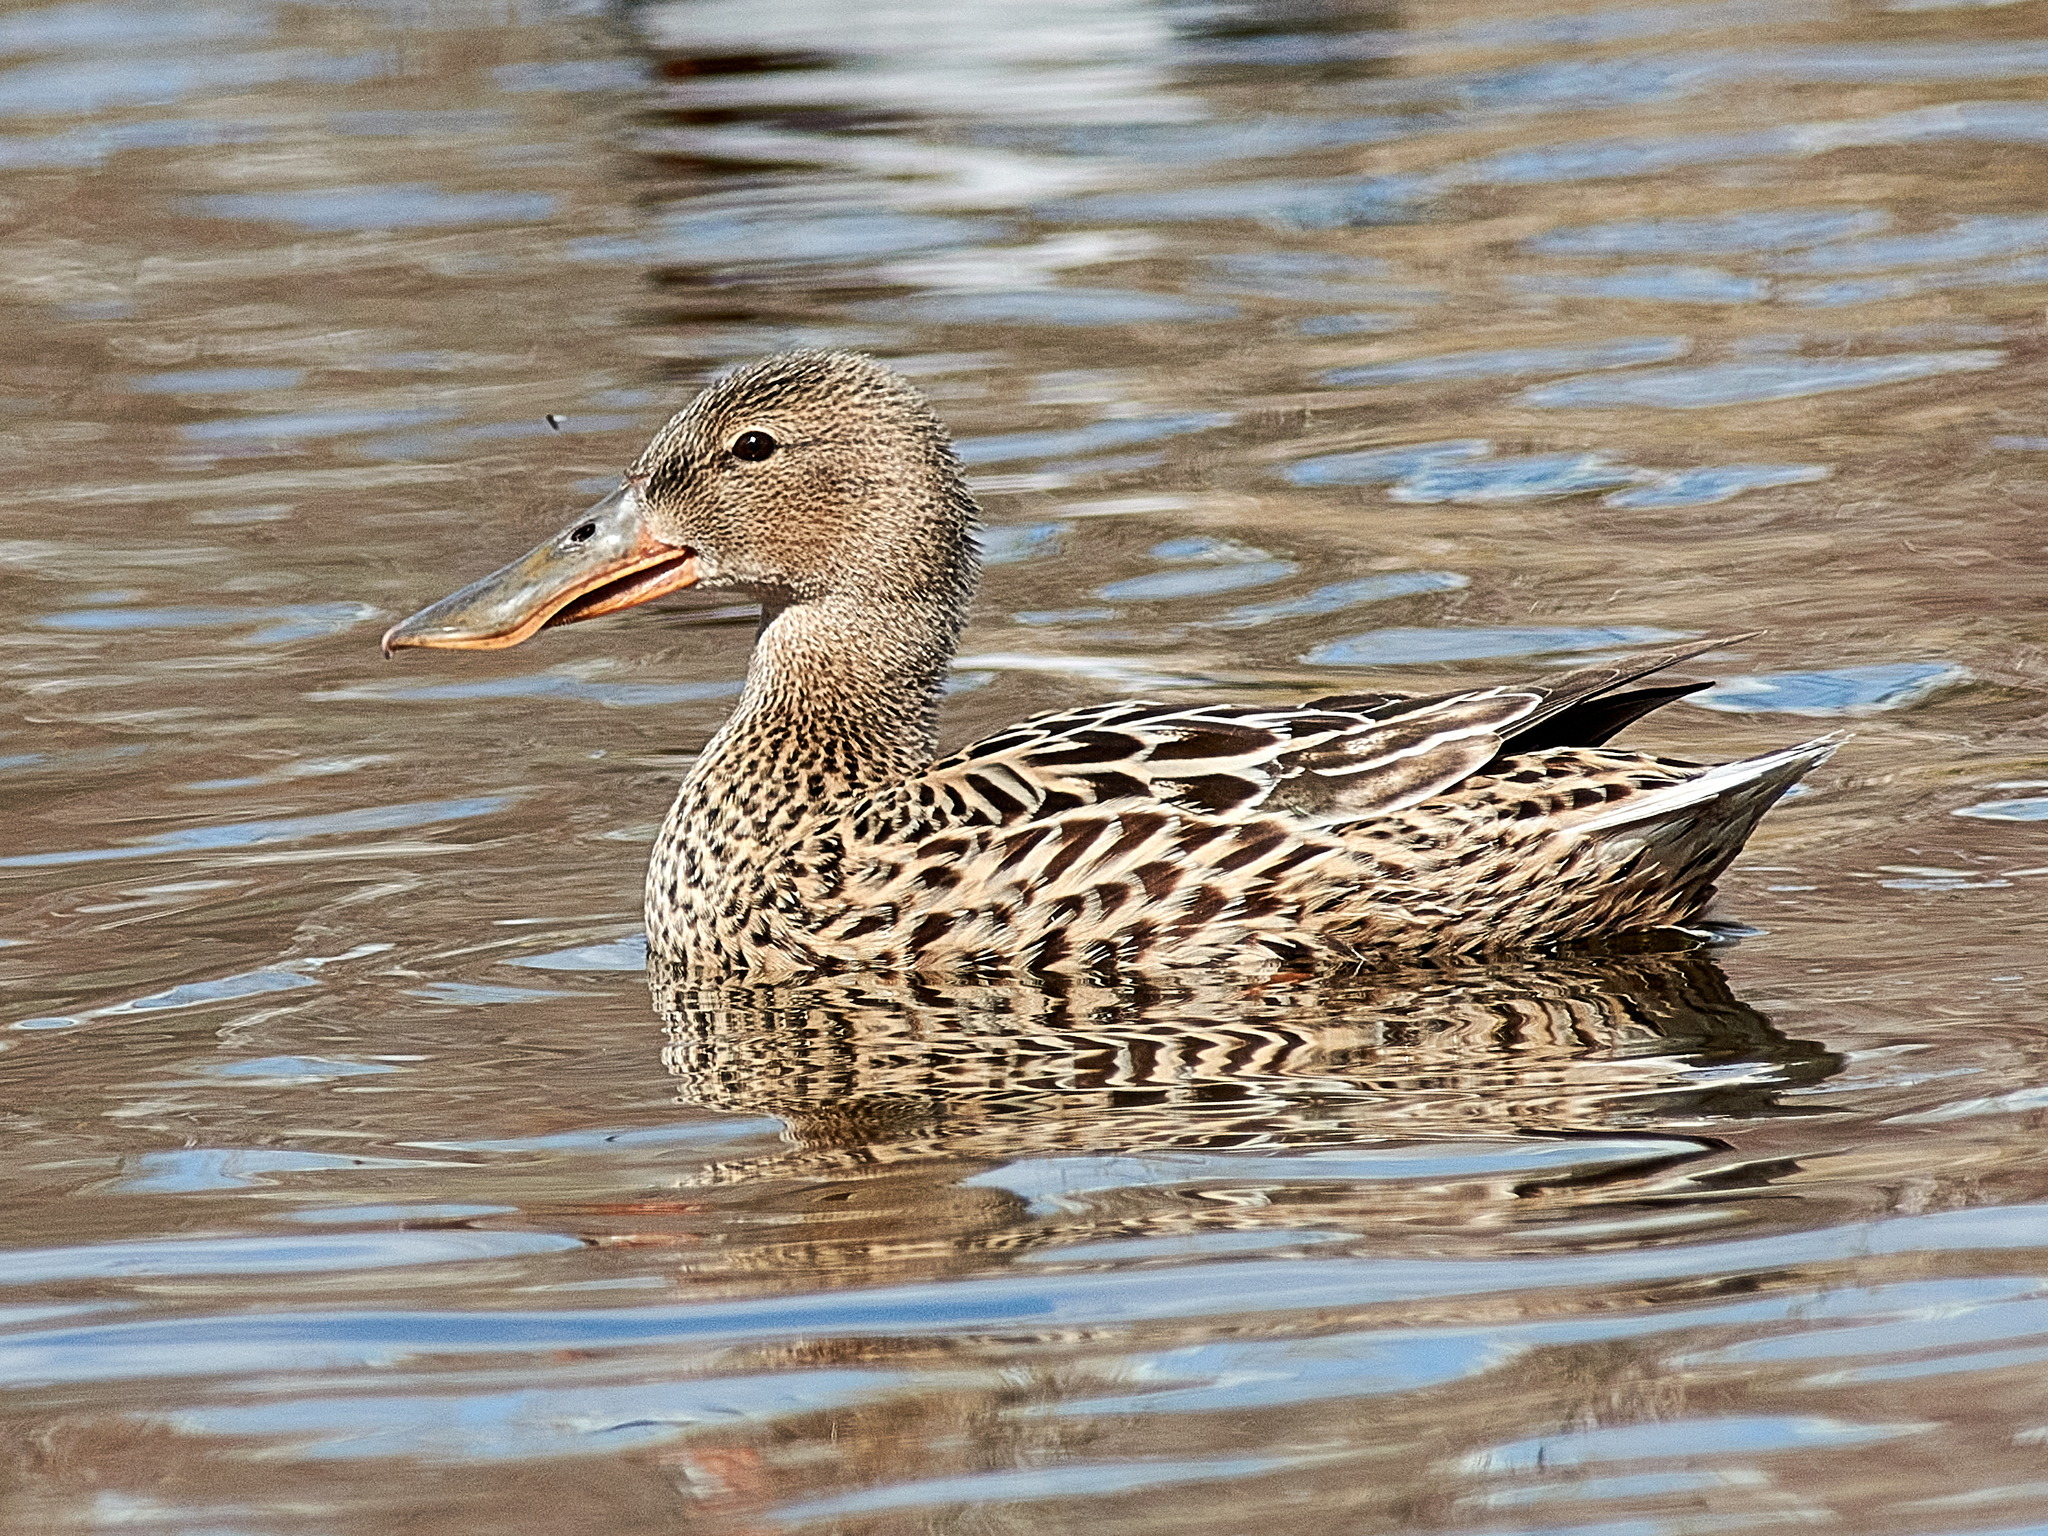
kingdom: Animalia
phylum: Chordata
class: Aves
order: Anseriformes
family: Anatidae
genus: Spatula
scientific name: Spatula clypeata
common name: Northern shoveler
